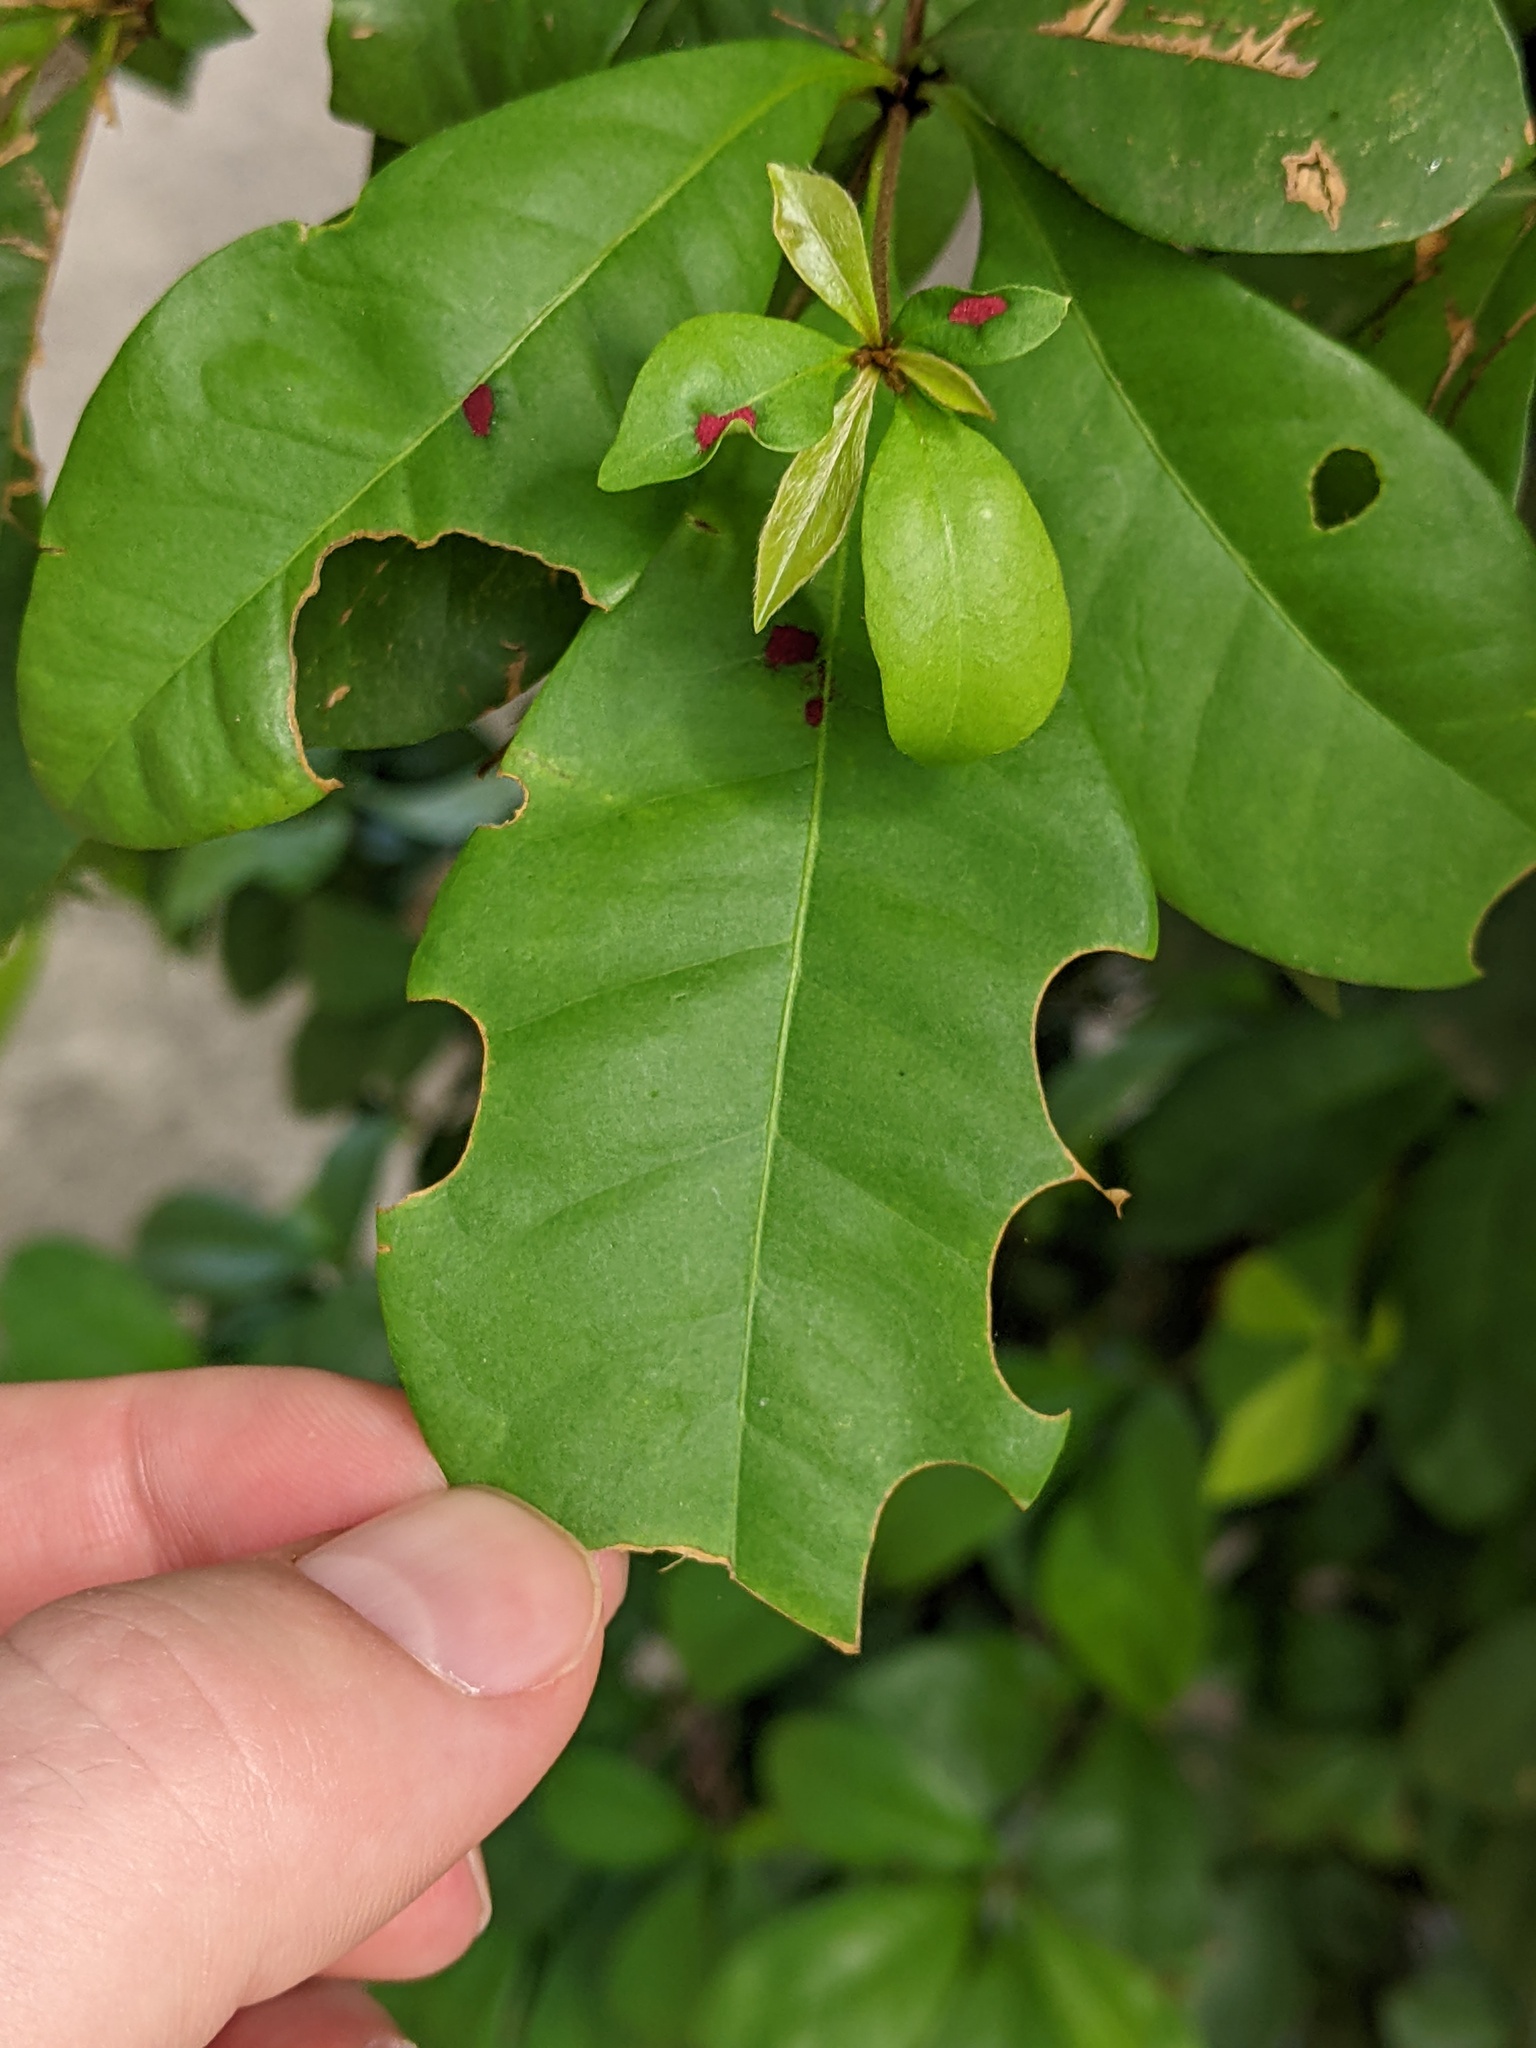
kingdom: Animalia
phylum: Arthropoda
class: Insecta
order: Hymenoptera
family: Megachilidae
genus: Megachile
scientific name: Megachile
